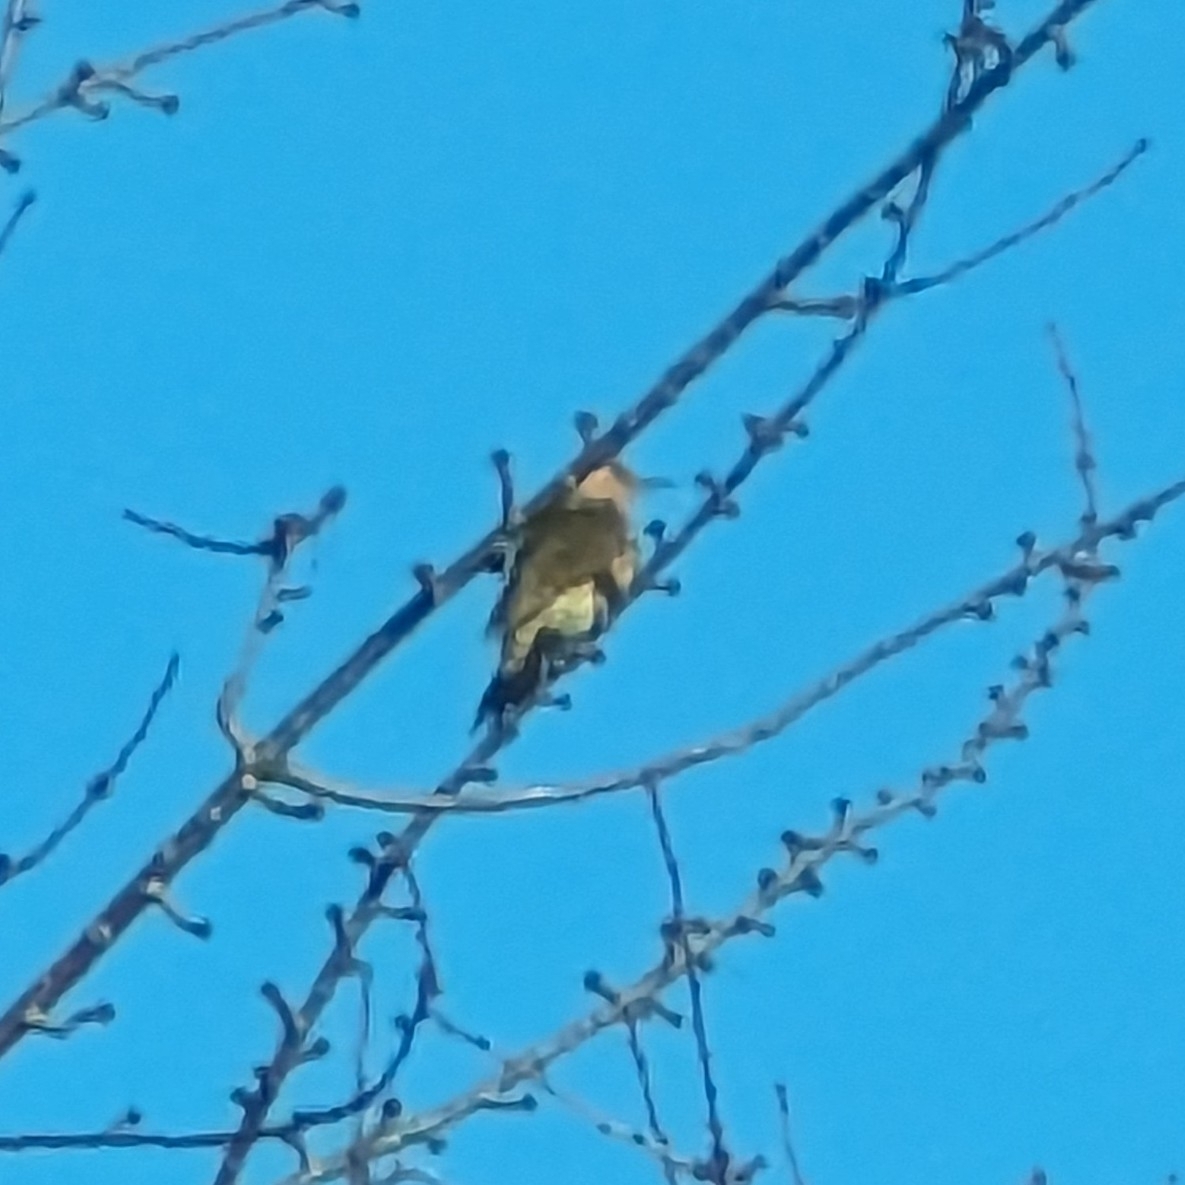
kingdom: Animalia
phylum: Chordata
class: Aves
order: Piciformes
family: Picidae
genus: Colaptes
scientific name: Colaptes auratus
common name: Northern flicker
